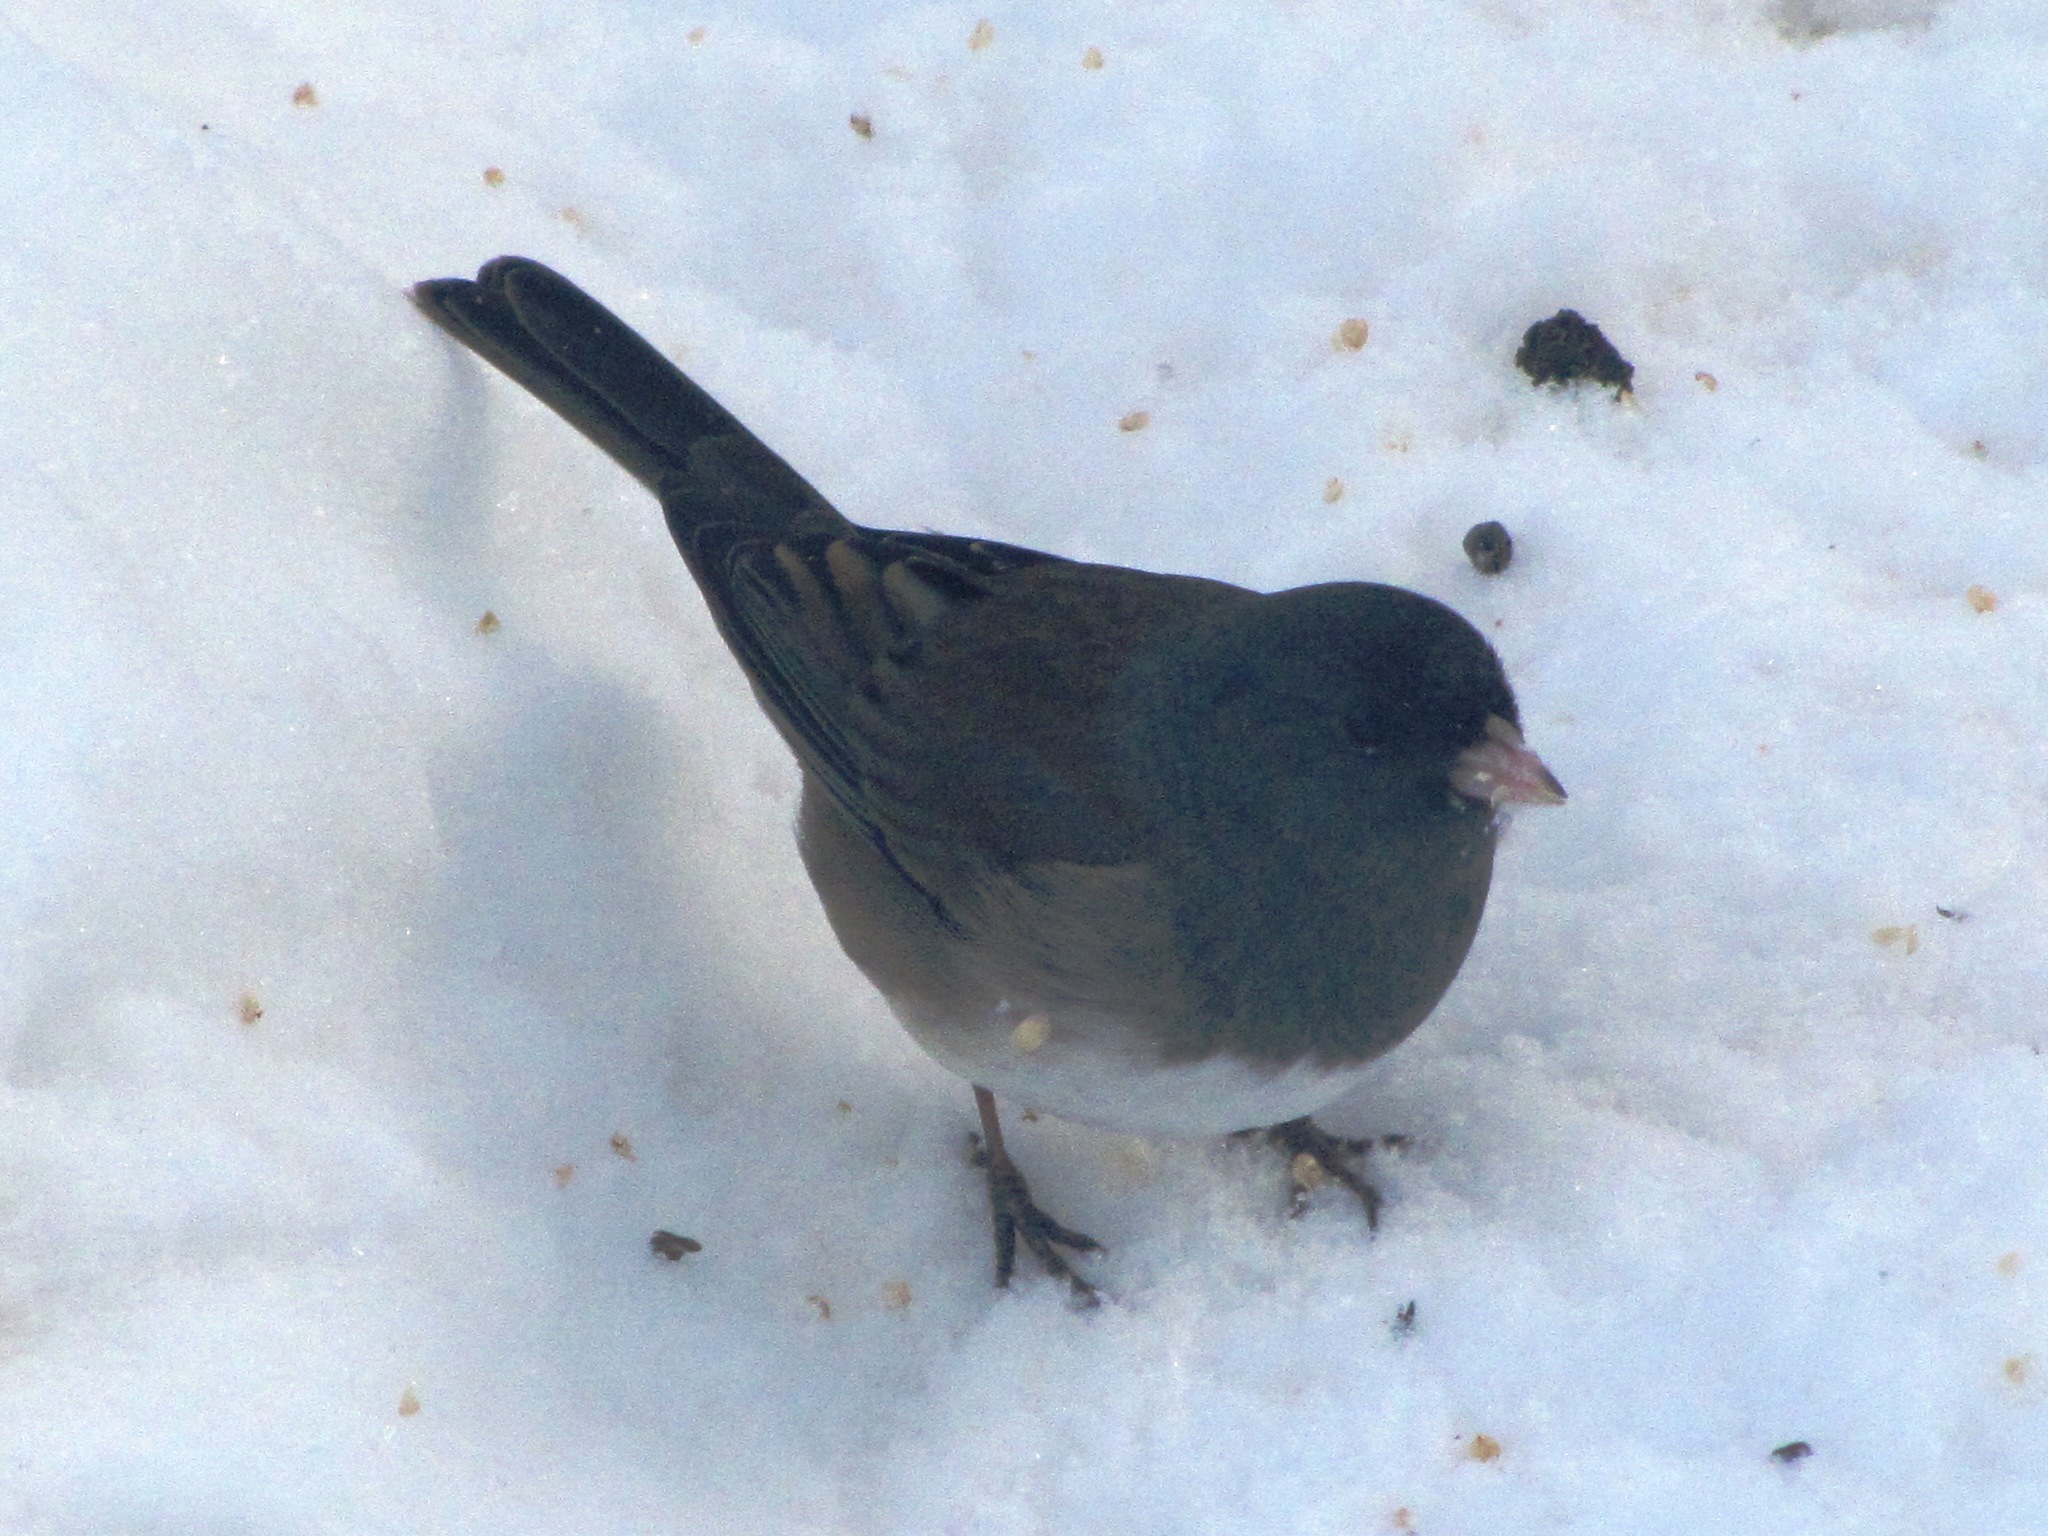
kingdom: Animalia
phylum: Chordata
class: Aves
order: Passeriformes
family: Passerellidae
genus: Junco
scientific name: Junco hyemalis
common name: Dark-eyed junco
